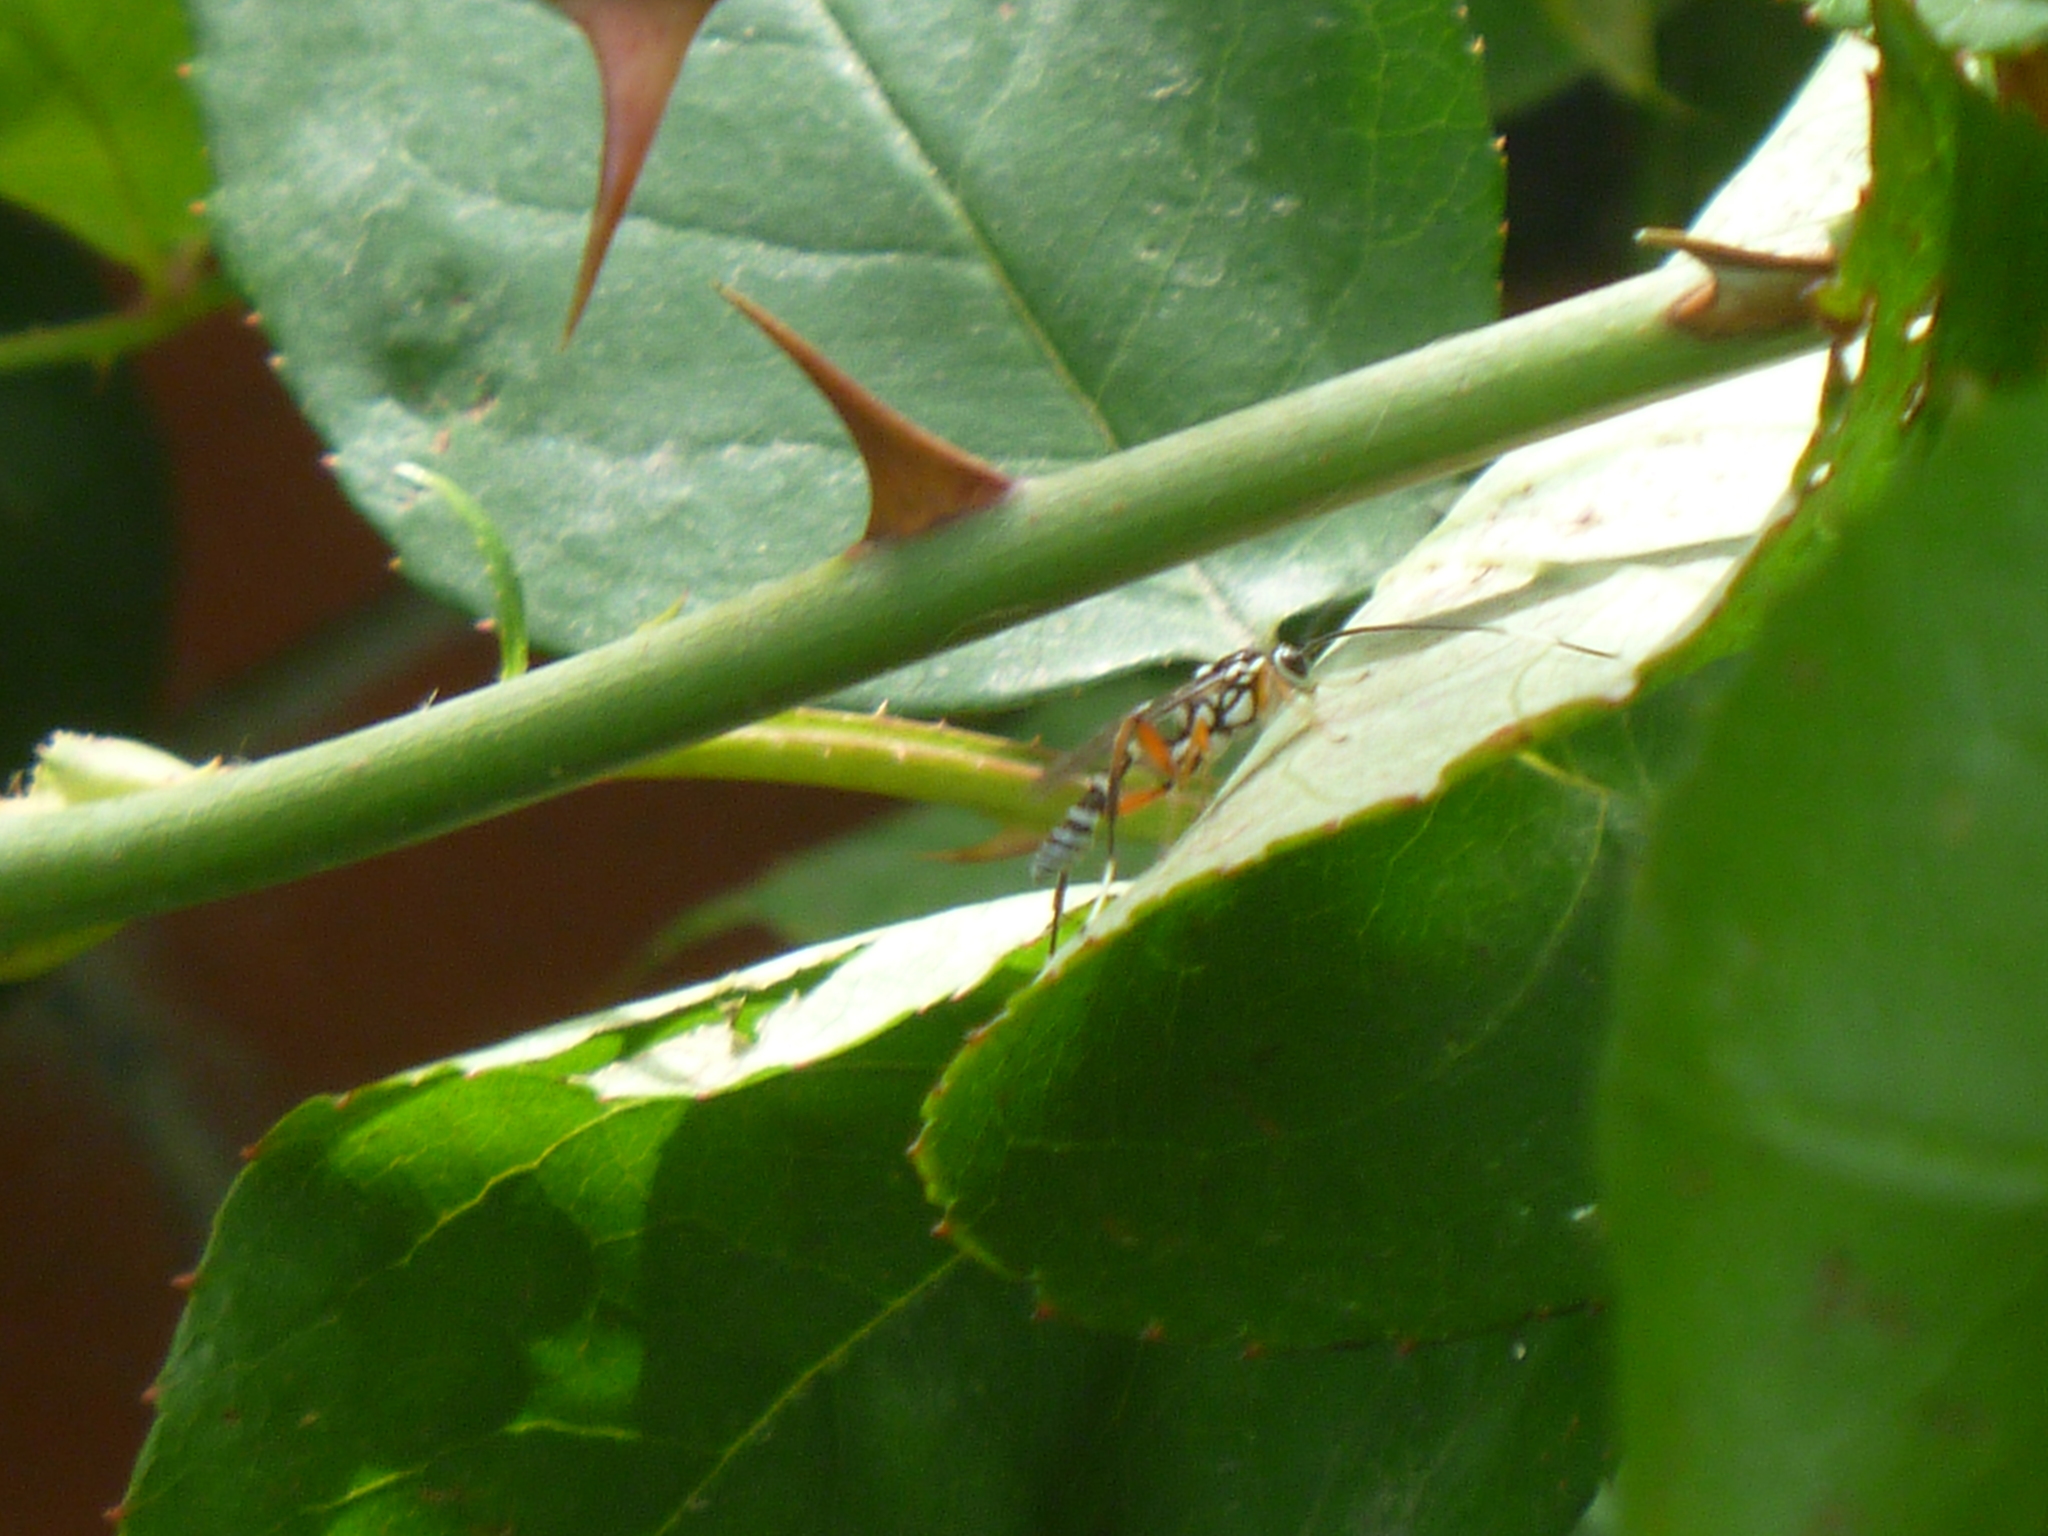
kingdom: Animalia
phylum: Arthropoda
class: Insecta
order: Hymenoptera
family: Ichneumonidae
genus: Glabridorsum
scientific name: Glabridorsum stokesii
